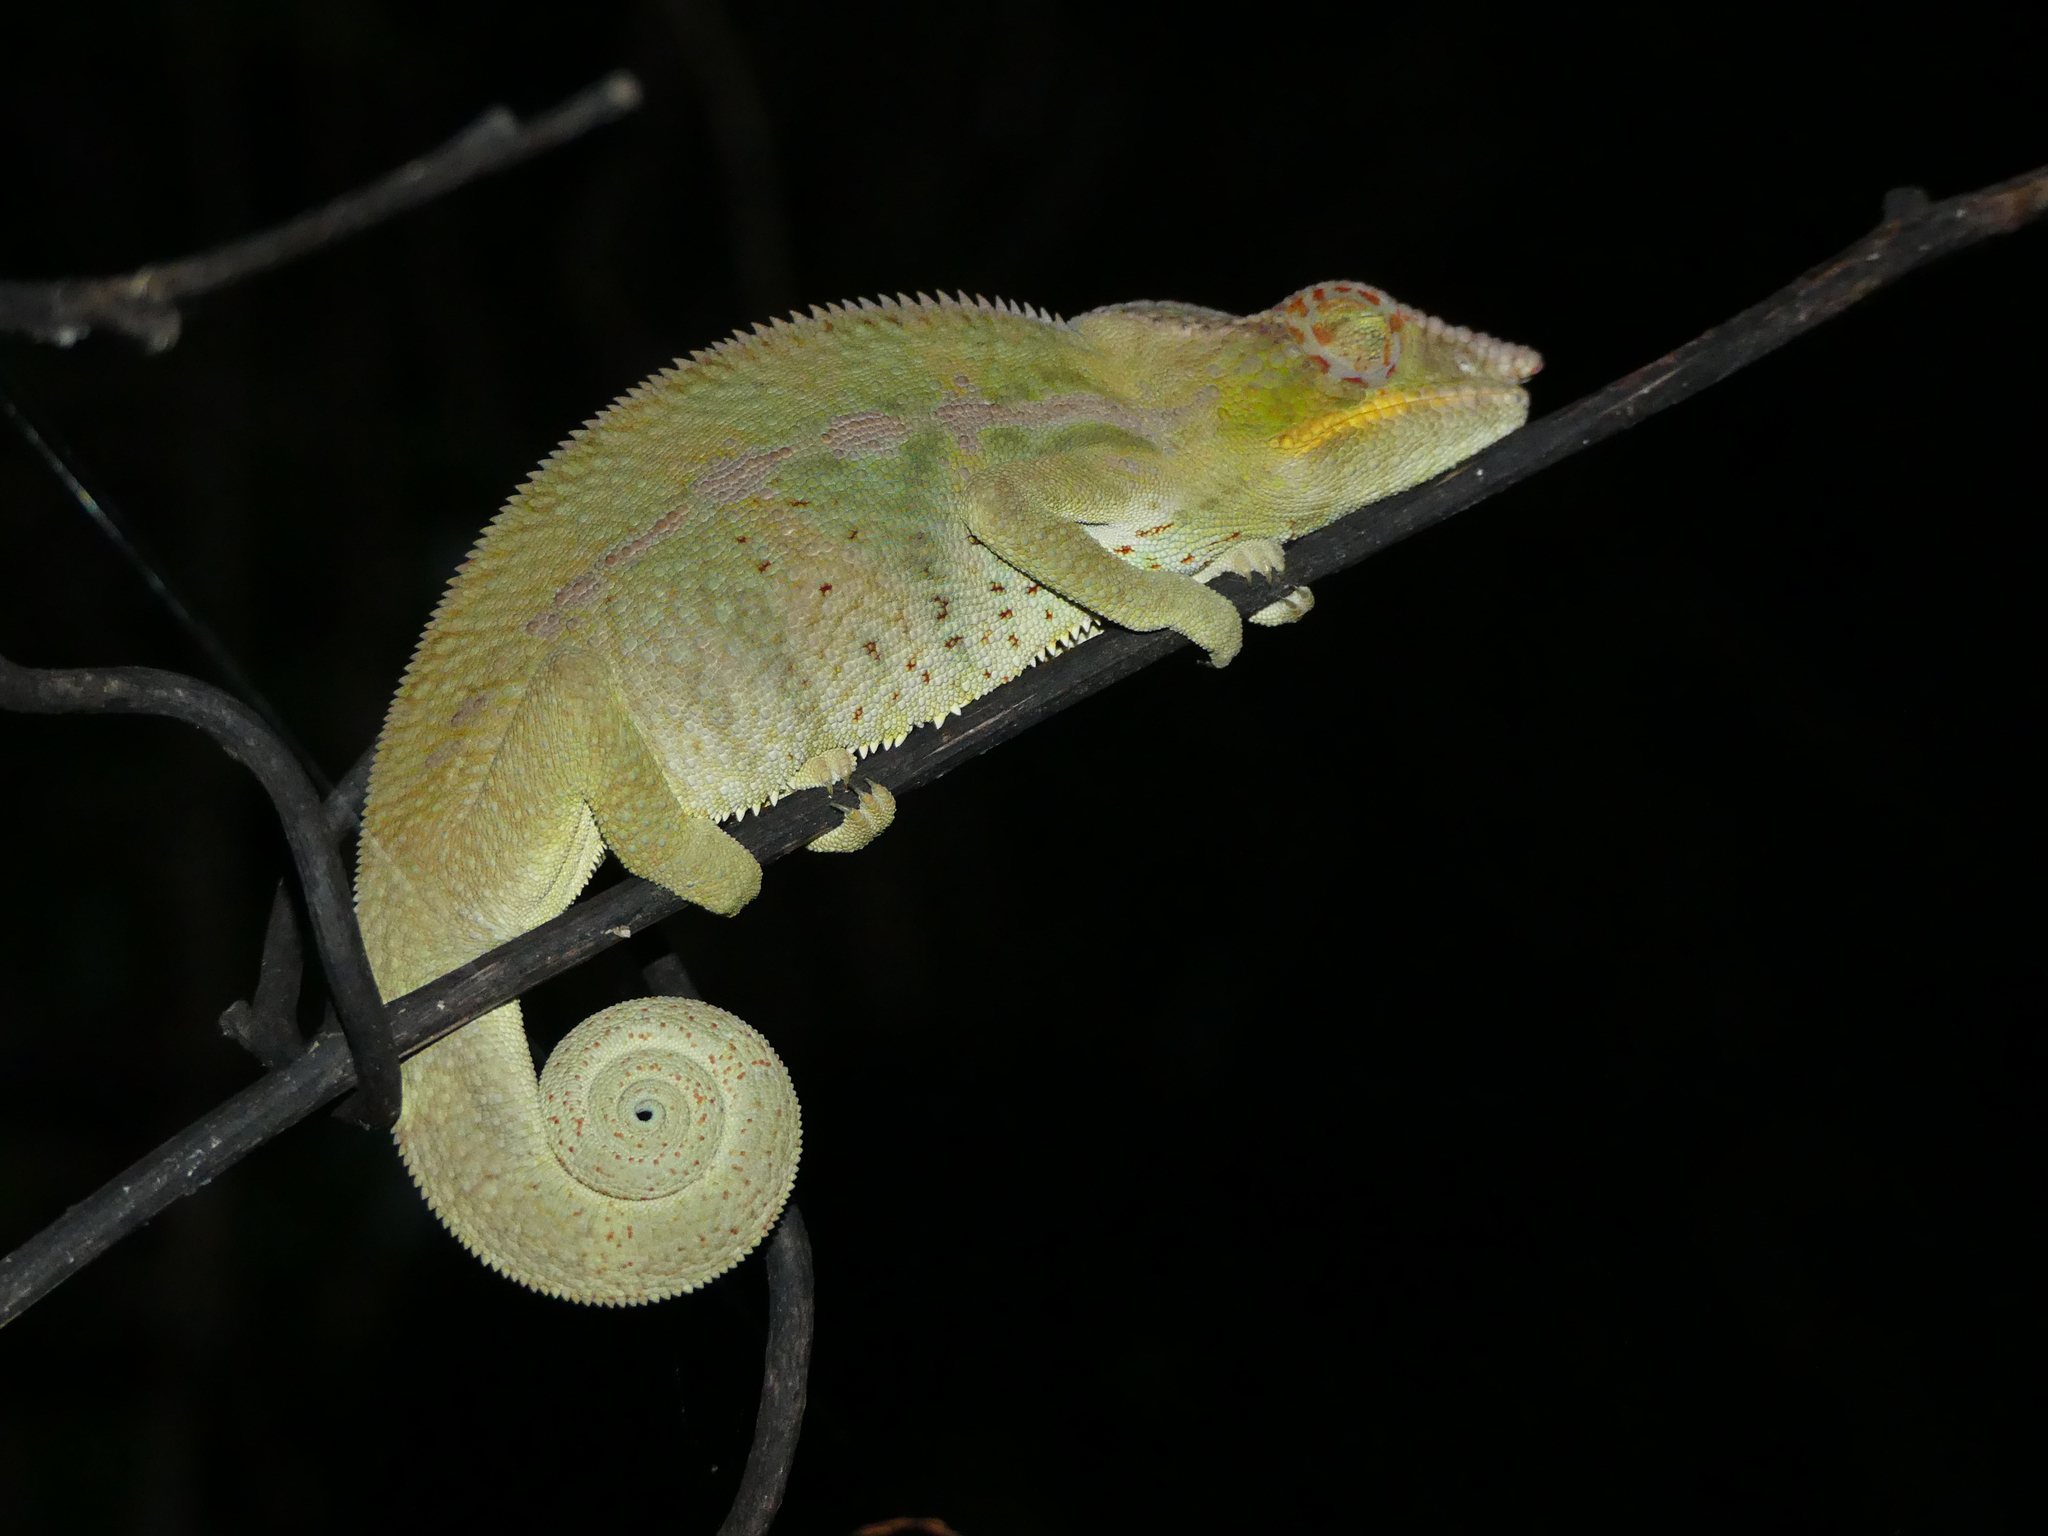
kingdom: Animalia
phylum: Chordata
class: Squamata
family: Chamaeleonidae
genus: Furcifer
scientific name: Furcifer pardalis
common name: Panther chameleon
